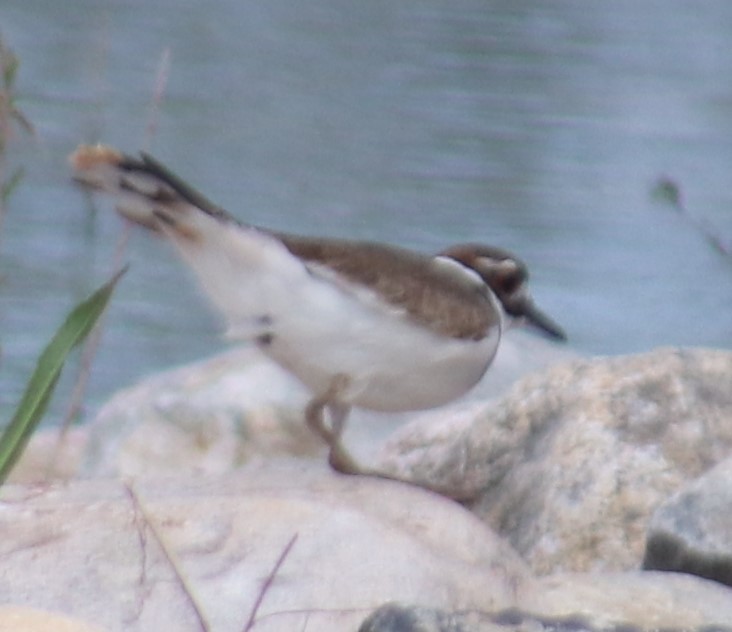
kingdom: Animalia
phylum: Chordata
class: Aves
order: Charadriiformes
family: Charadriidae
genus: Charadrius
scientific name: Charadrius vociferus
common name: Killdeer
